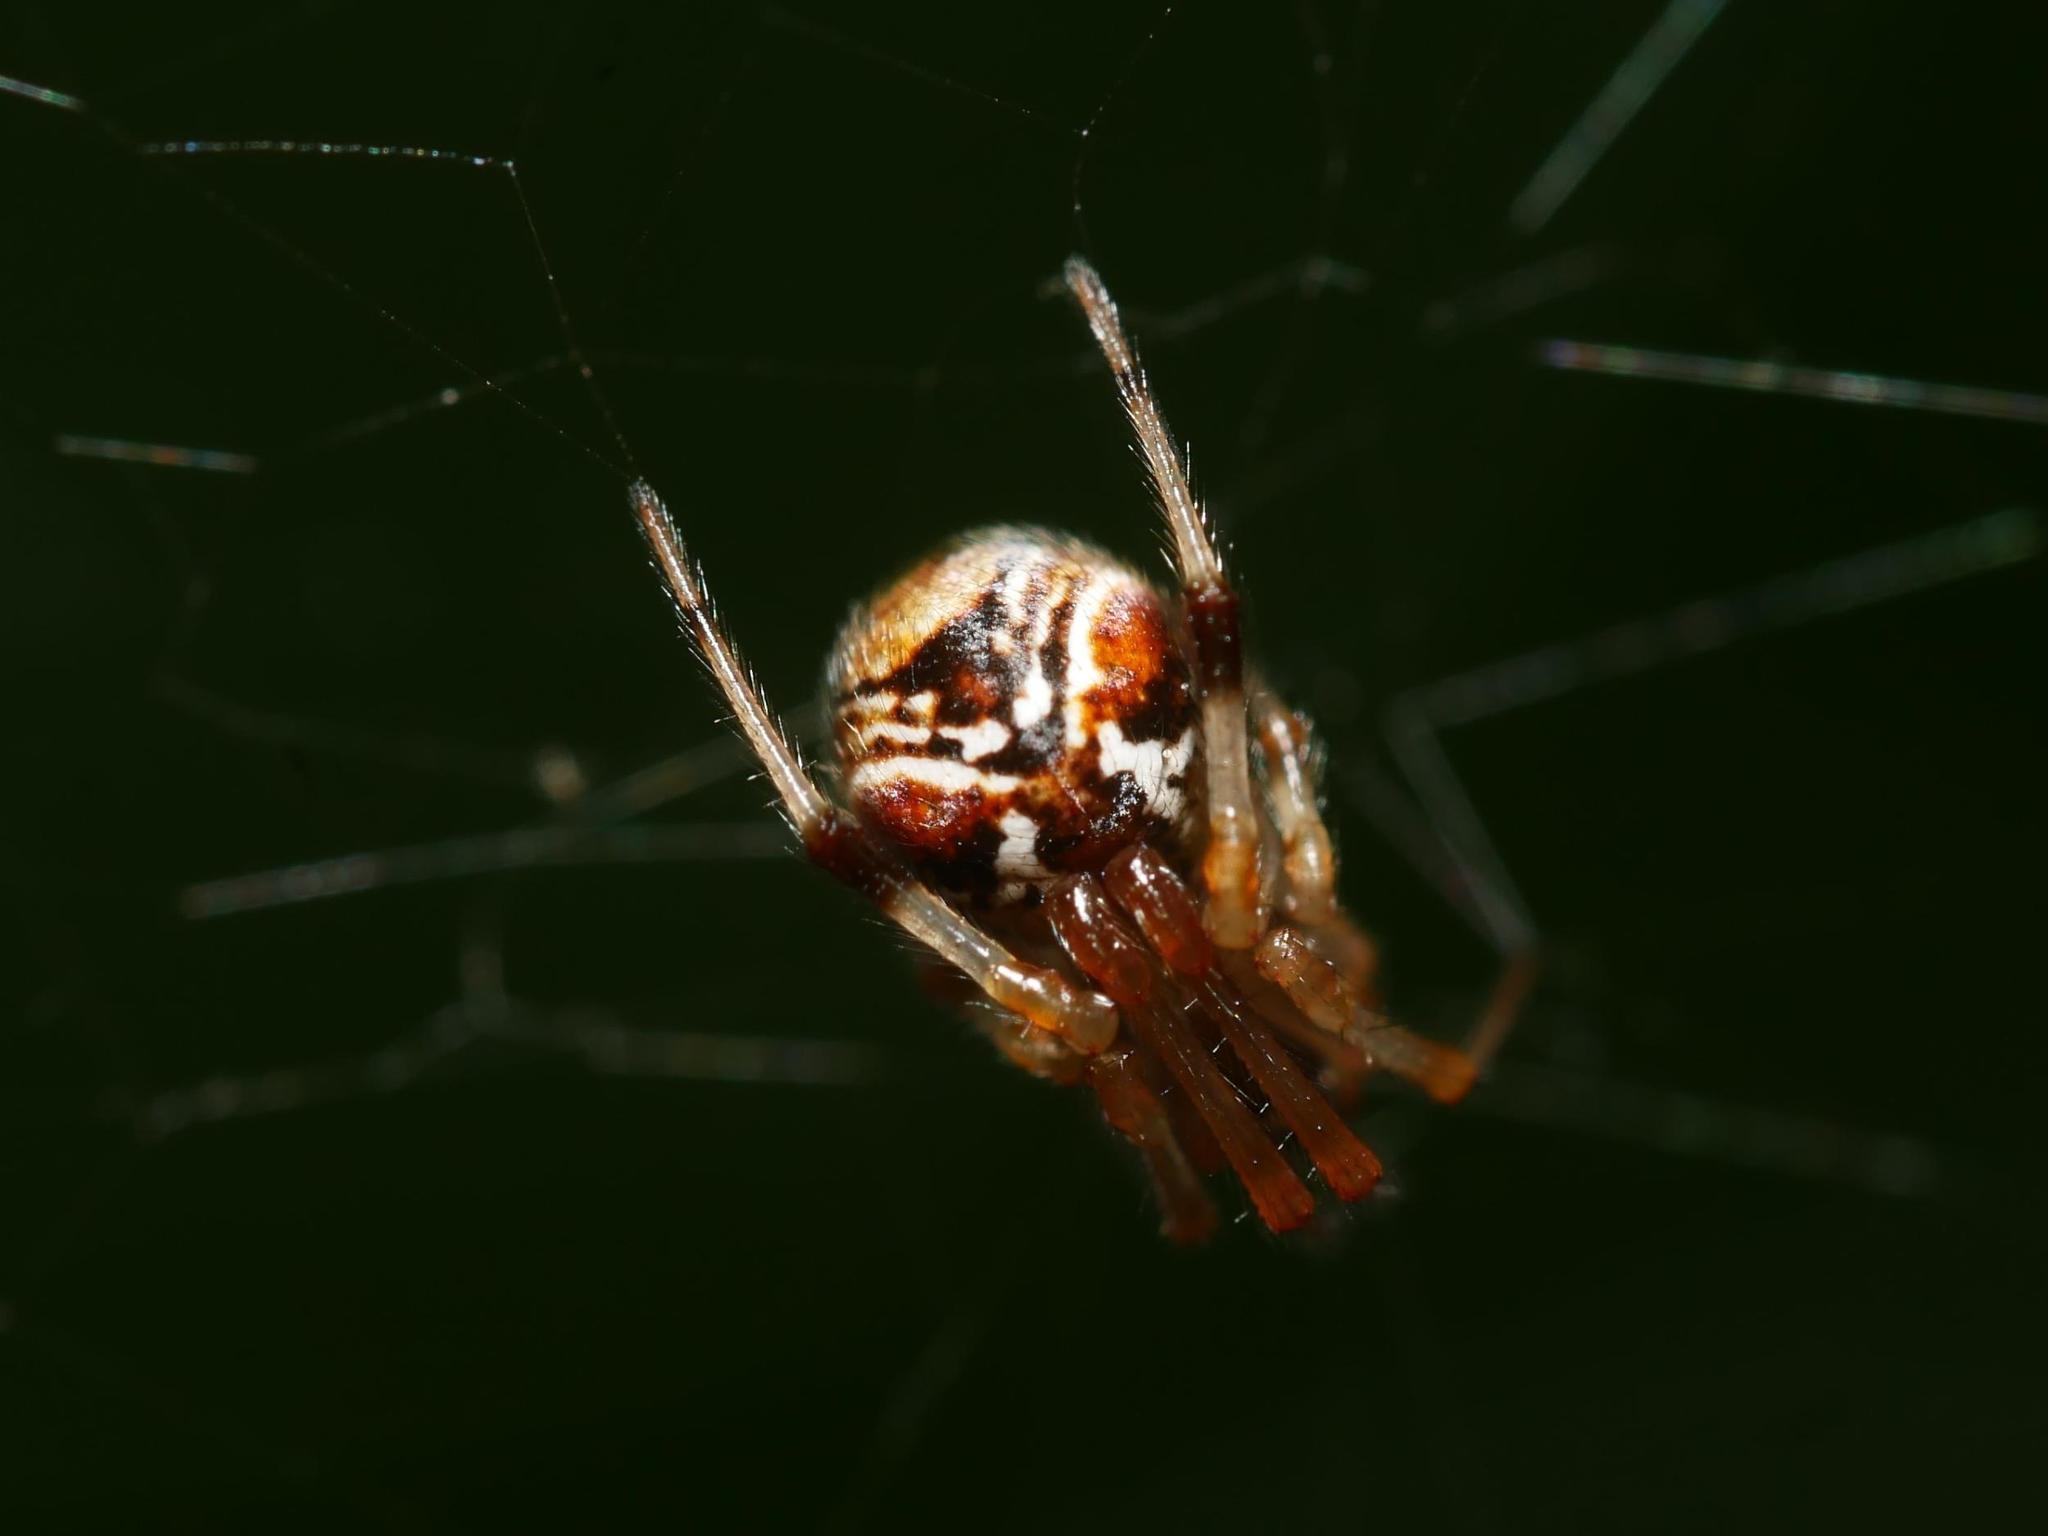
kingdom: Animalia
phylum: Arthropoda
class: Arachnida
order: Araneae
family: Theridiidae
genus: Parasteatoda
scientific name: Parasteatoda lunata
